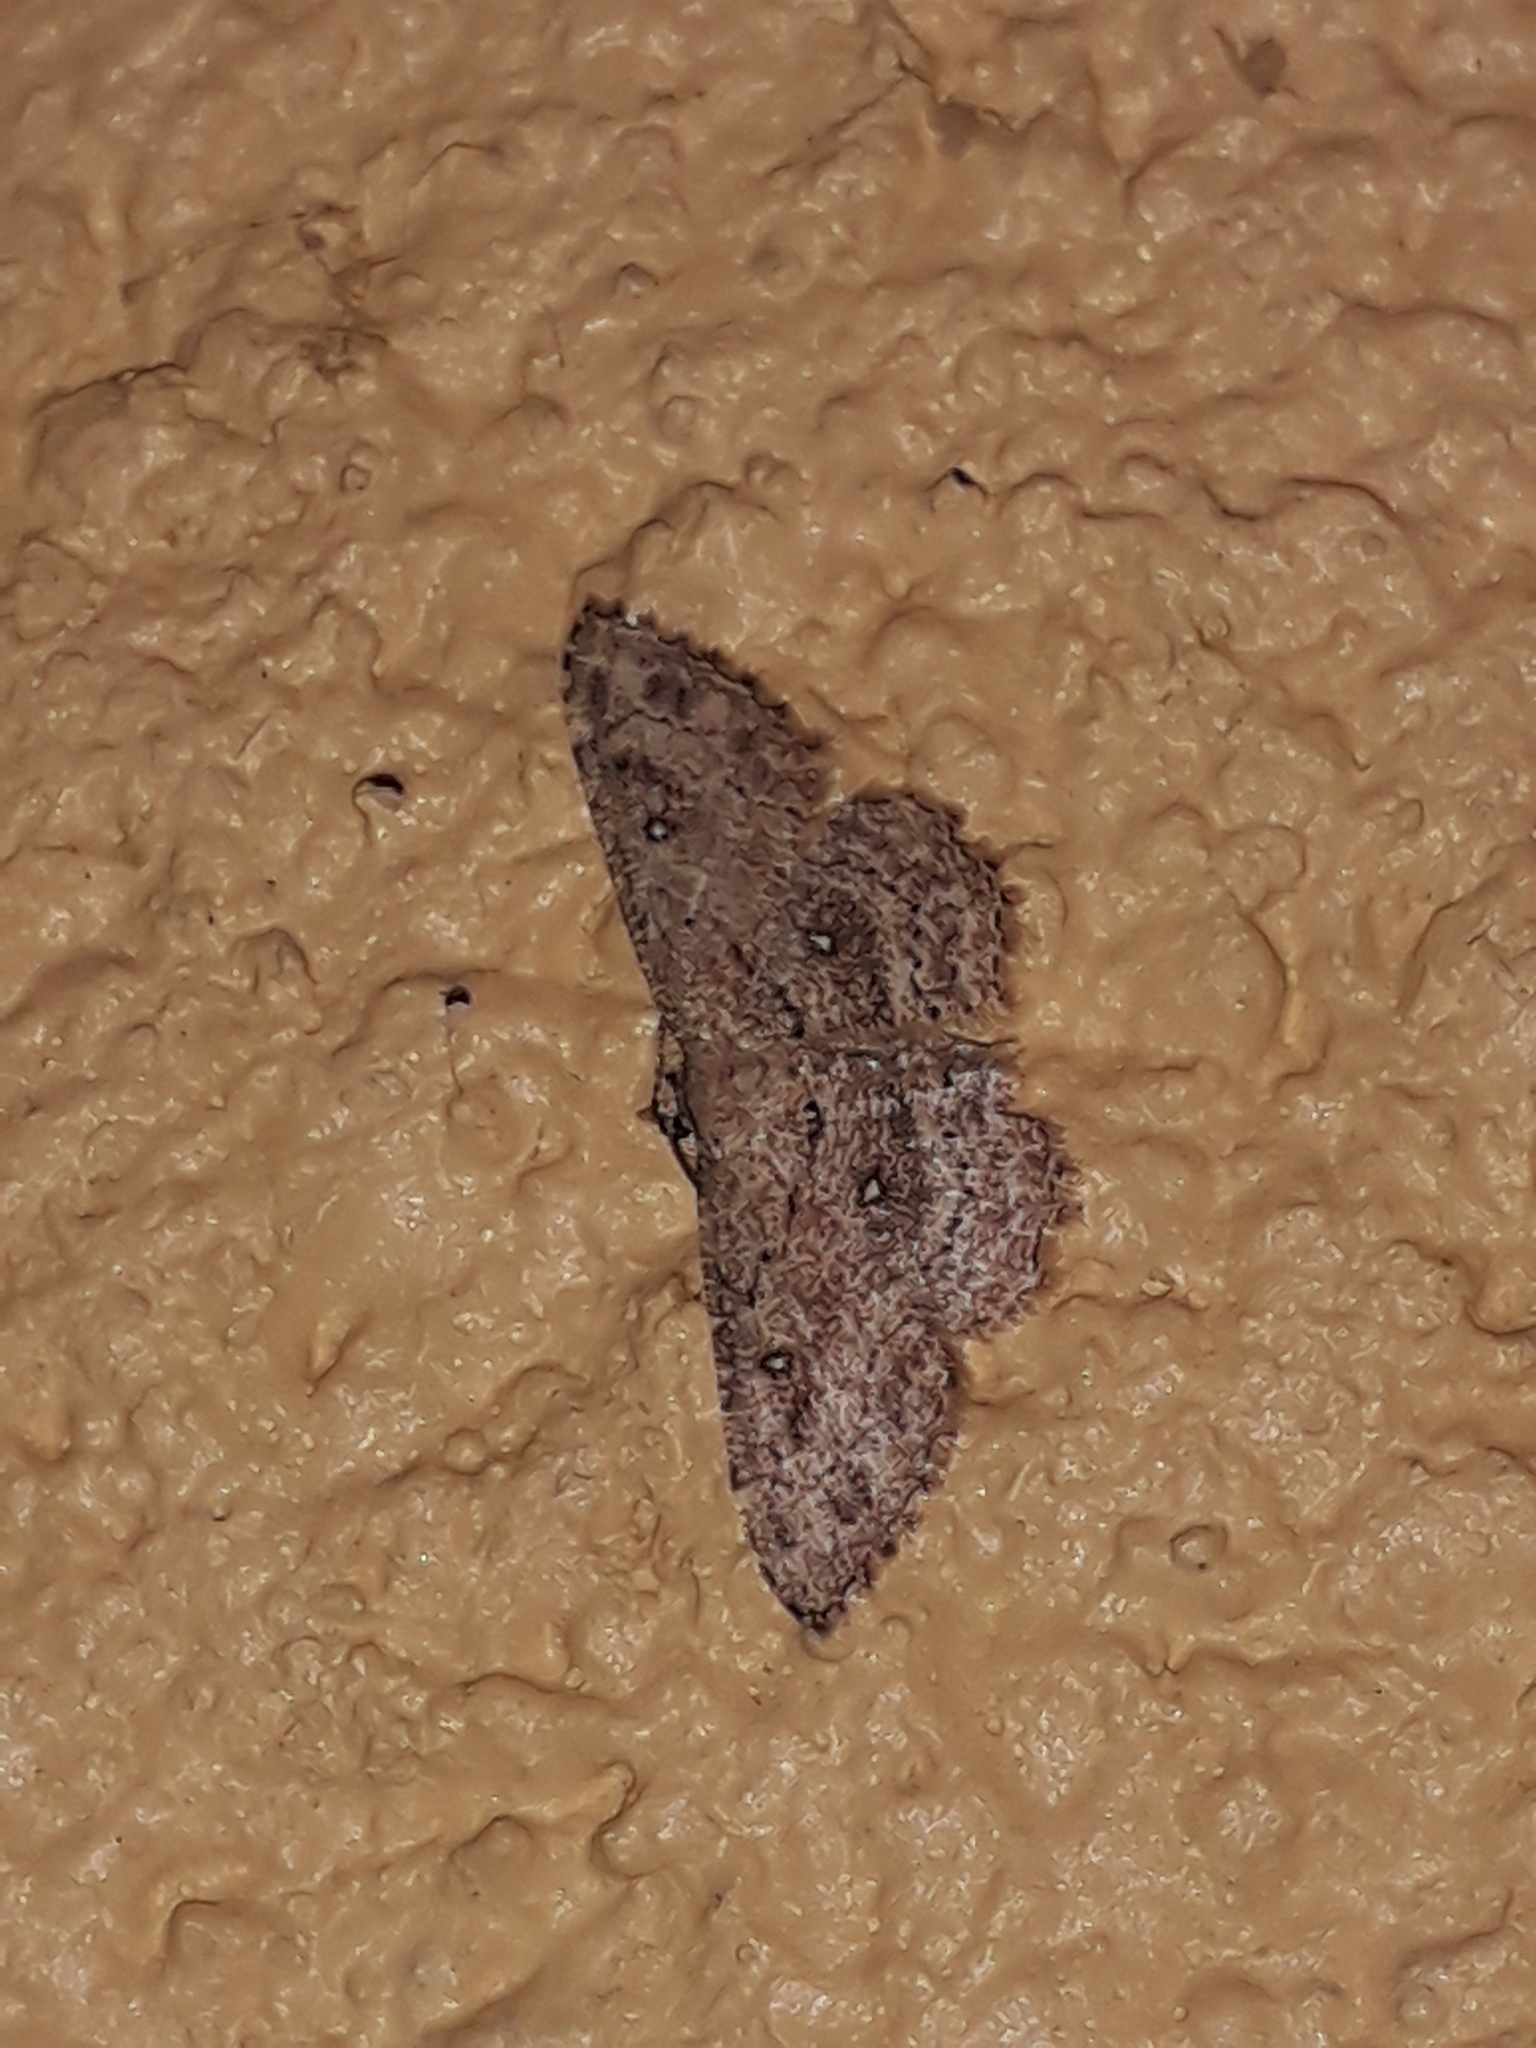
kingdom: Animalia
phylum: Arthropoda
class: Insecta
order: Lepidoptera
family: Geometridae
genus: Cyclophora
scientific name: Cyclophora nanaria
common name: Cankerworm
